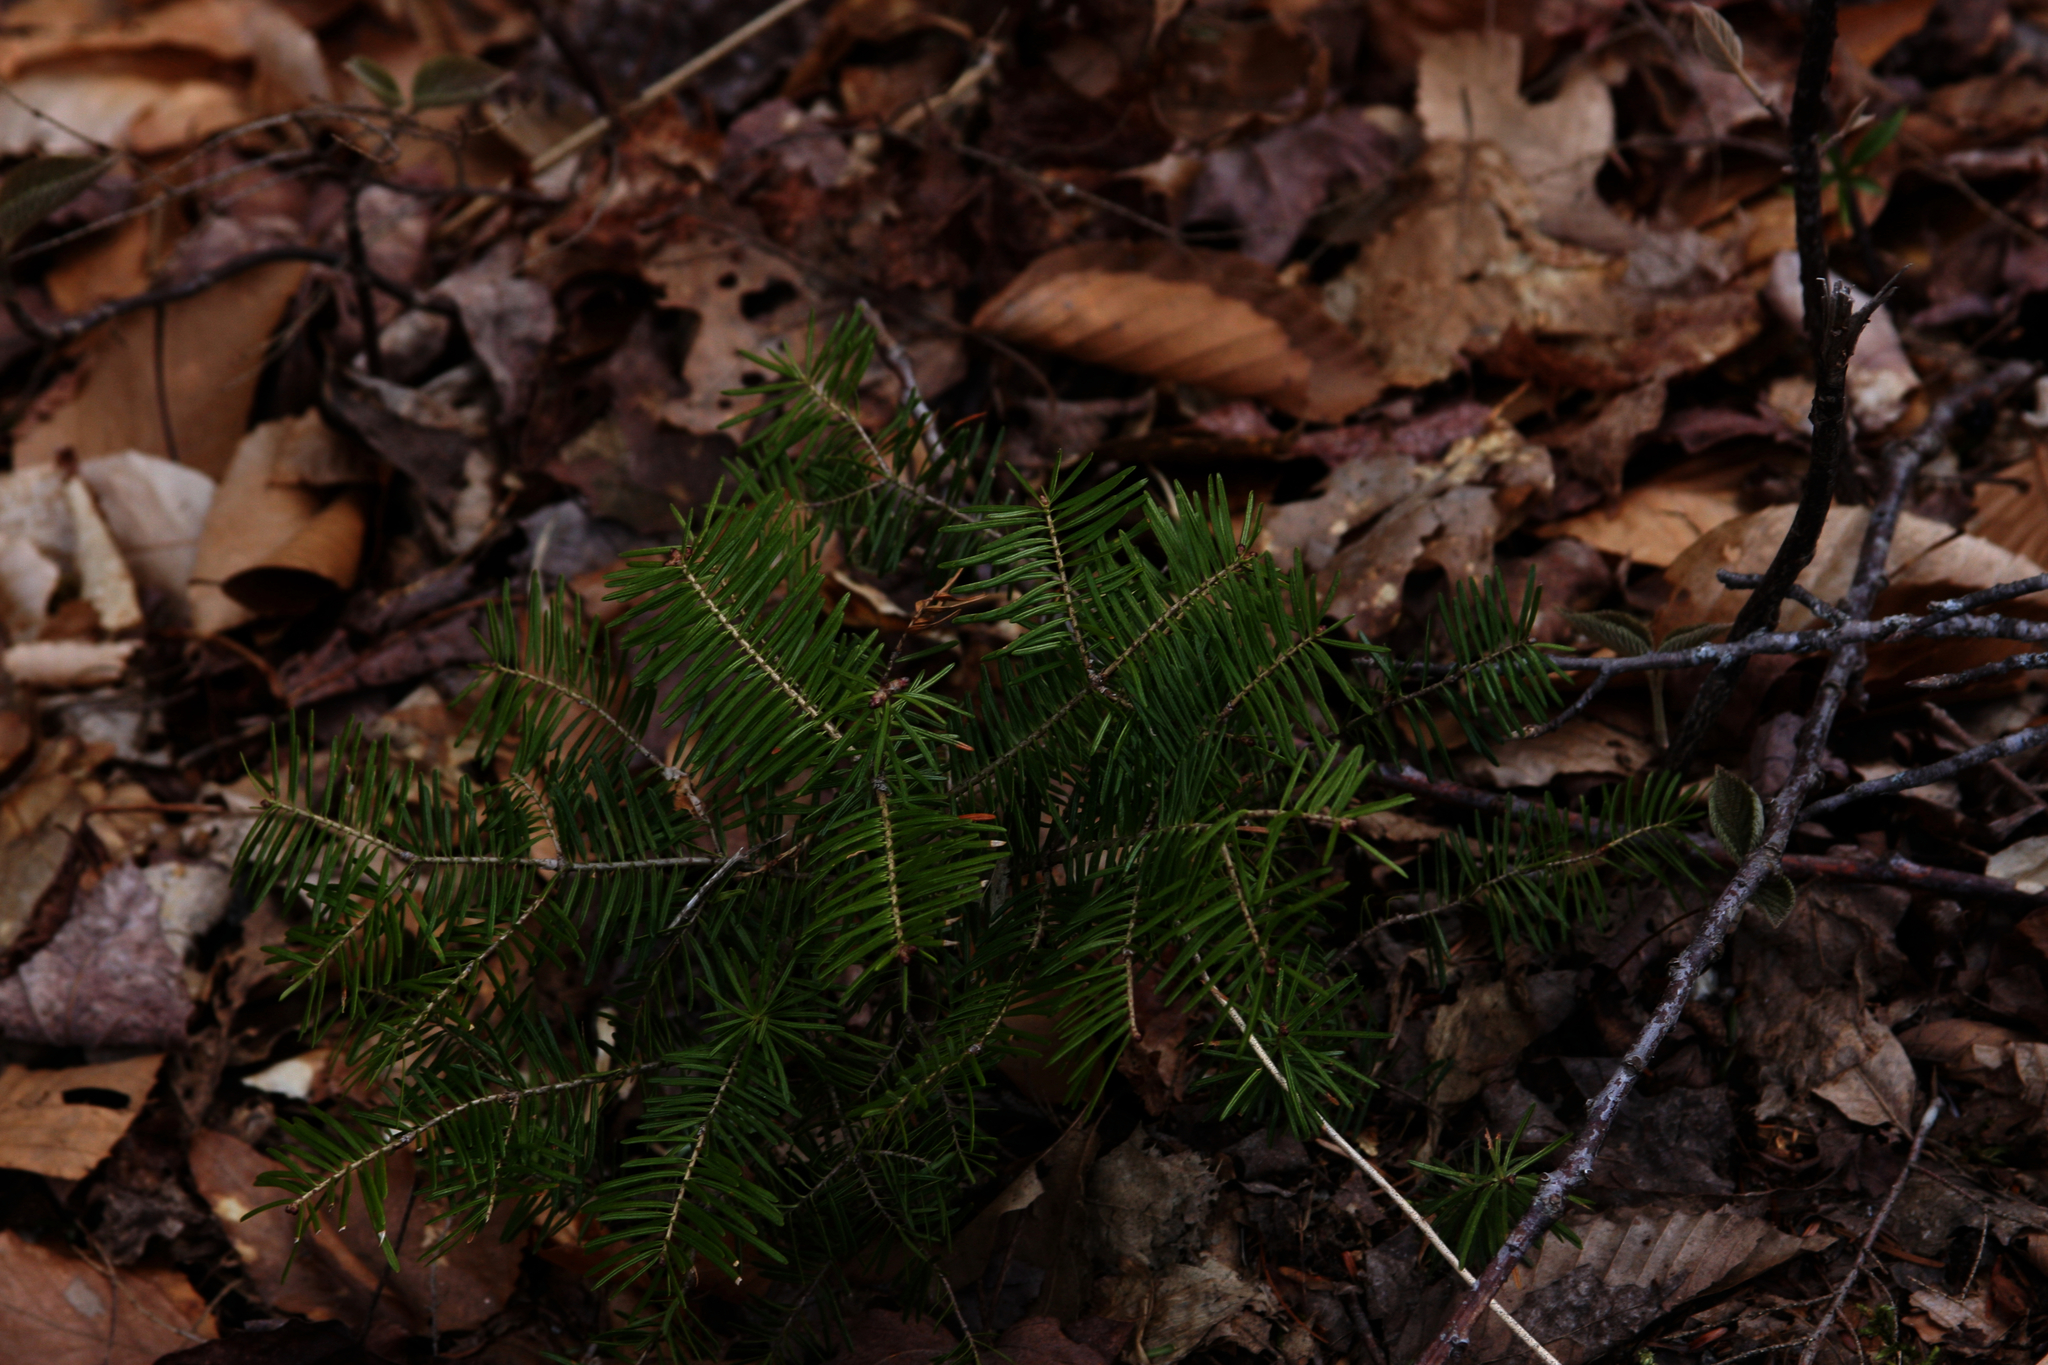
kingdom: Plantae
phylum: Tracheophyta
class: Pinopsida
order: Pinales
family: Pinaceae
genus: Abies
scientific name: Abies balsamea
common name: Balsam fir
